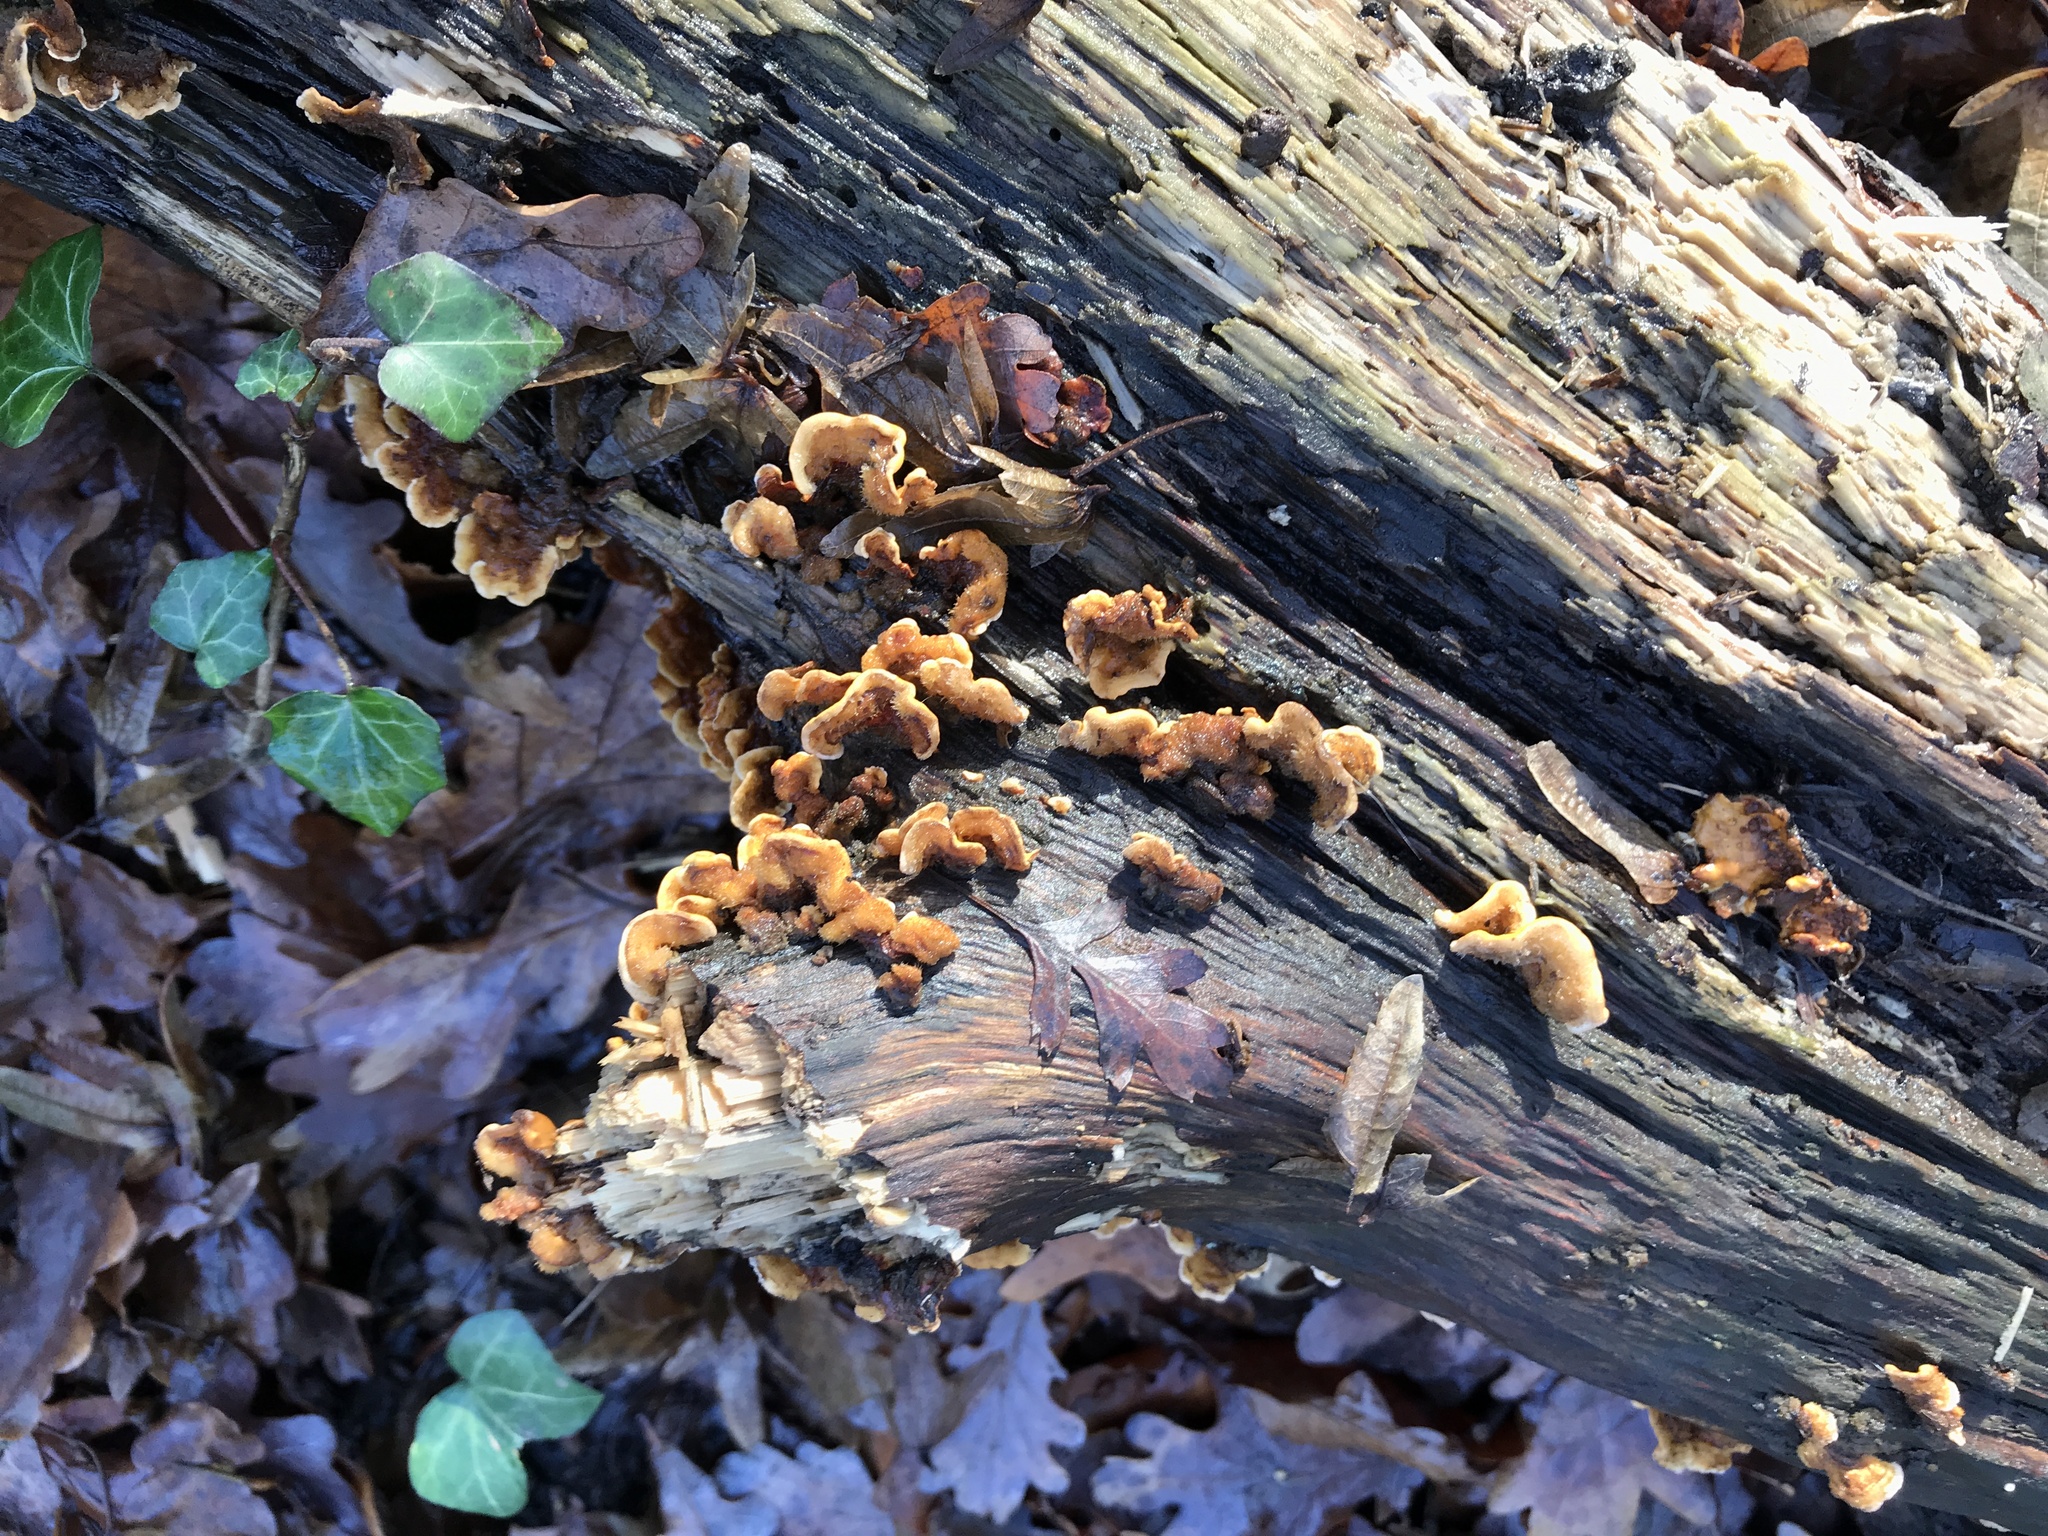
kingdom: Fungi
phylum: Basidiomycota
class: Agaricomycetes
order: Russulales
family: Stereaceae
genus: Stereum
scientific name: Stereum hirsutum
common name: Hairy curtain crust
